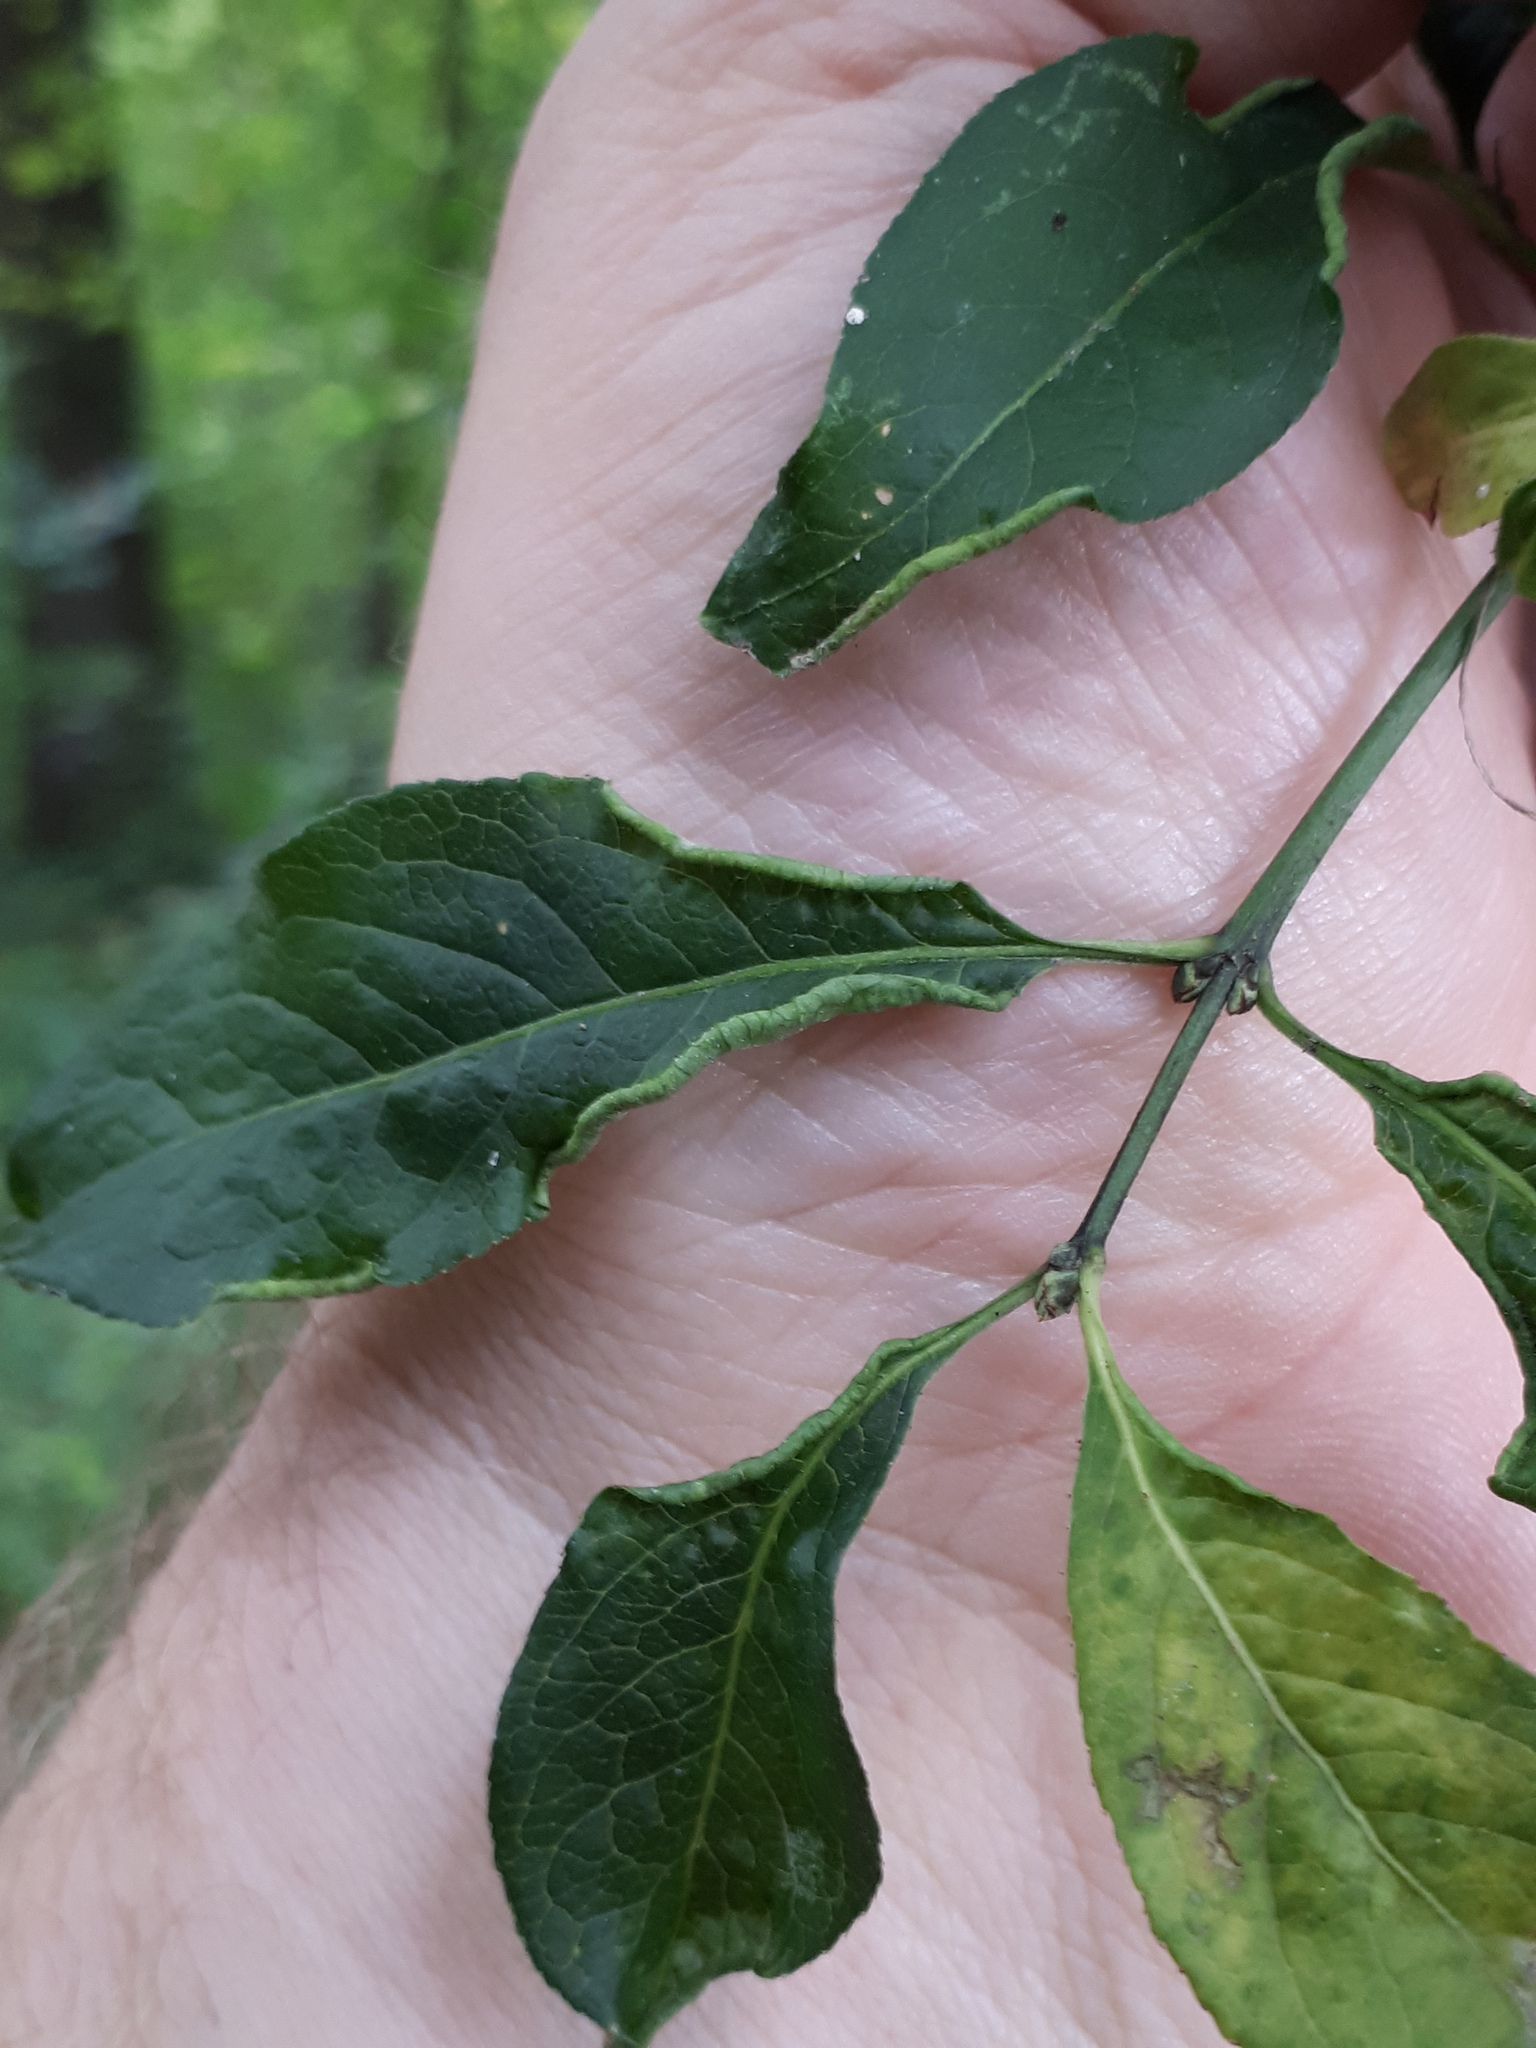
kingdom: Animalia
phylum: Arthropoda
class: Arachnida
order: Trombidiformes
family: Eriophyidae
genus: Stenacis
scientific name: Stenacis evonymi
